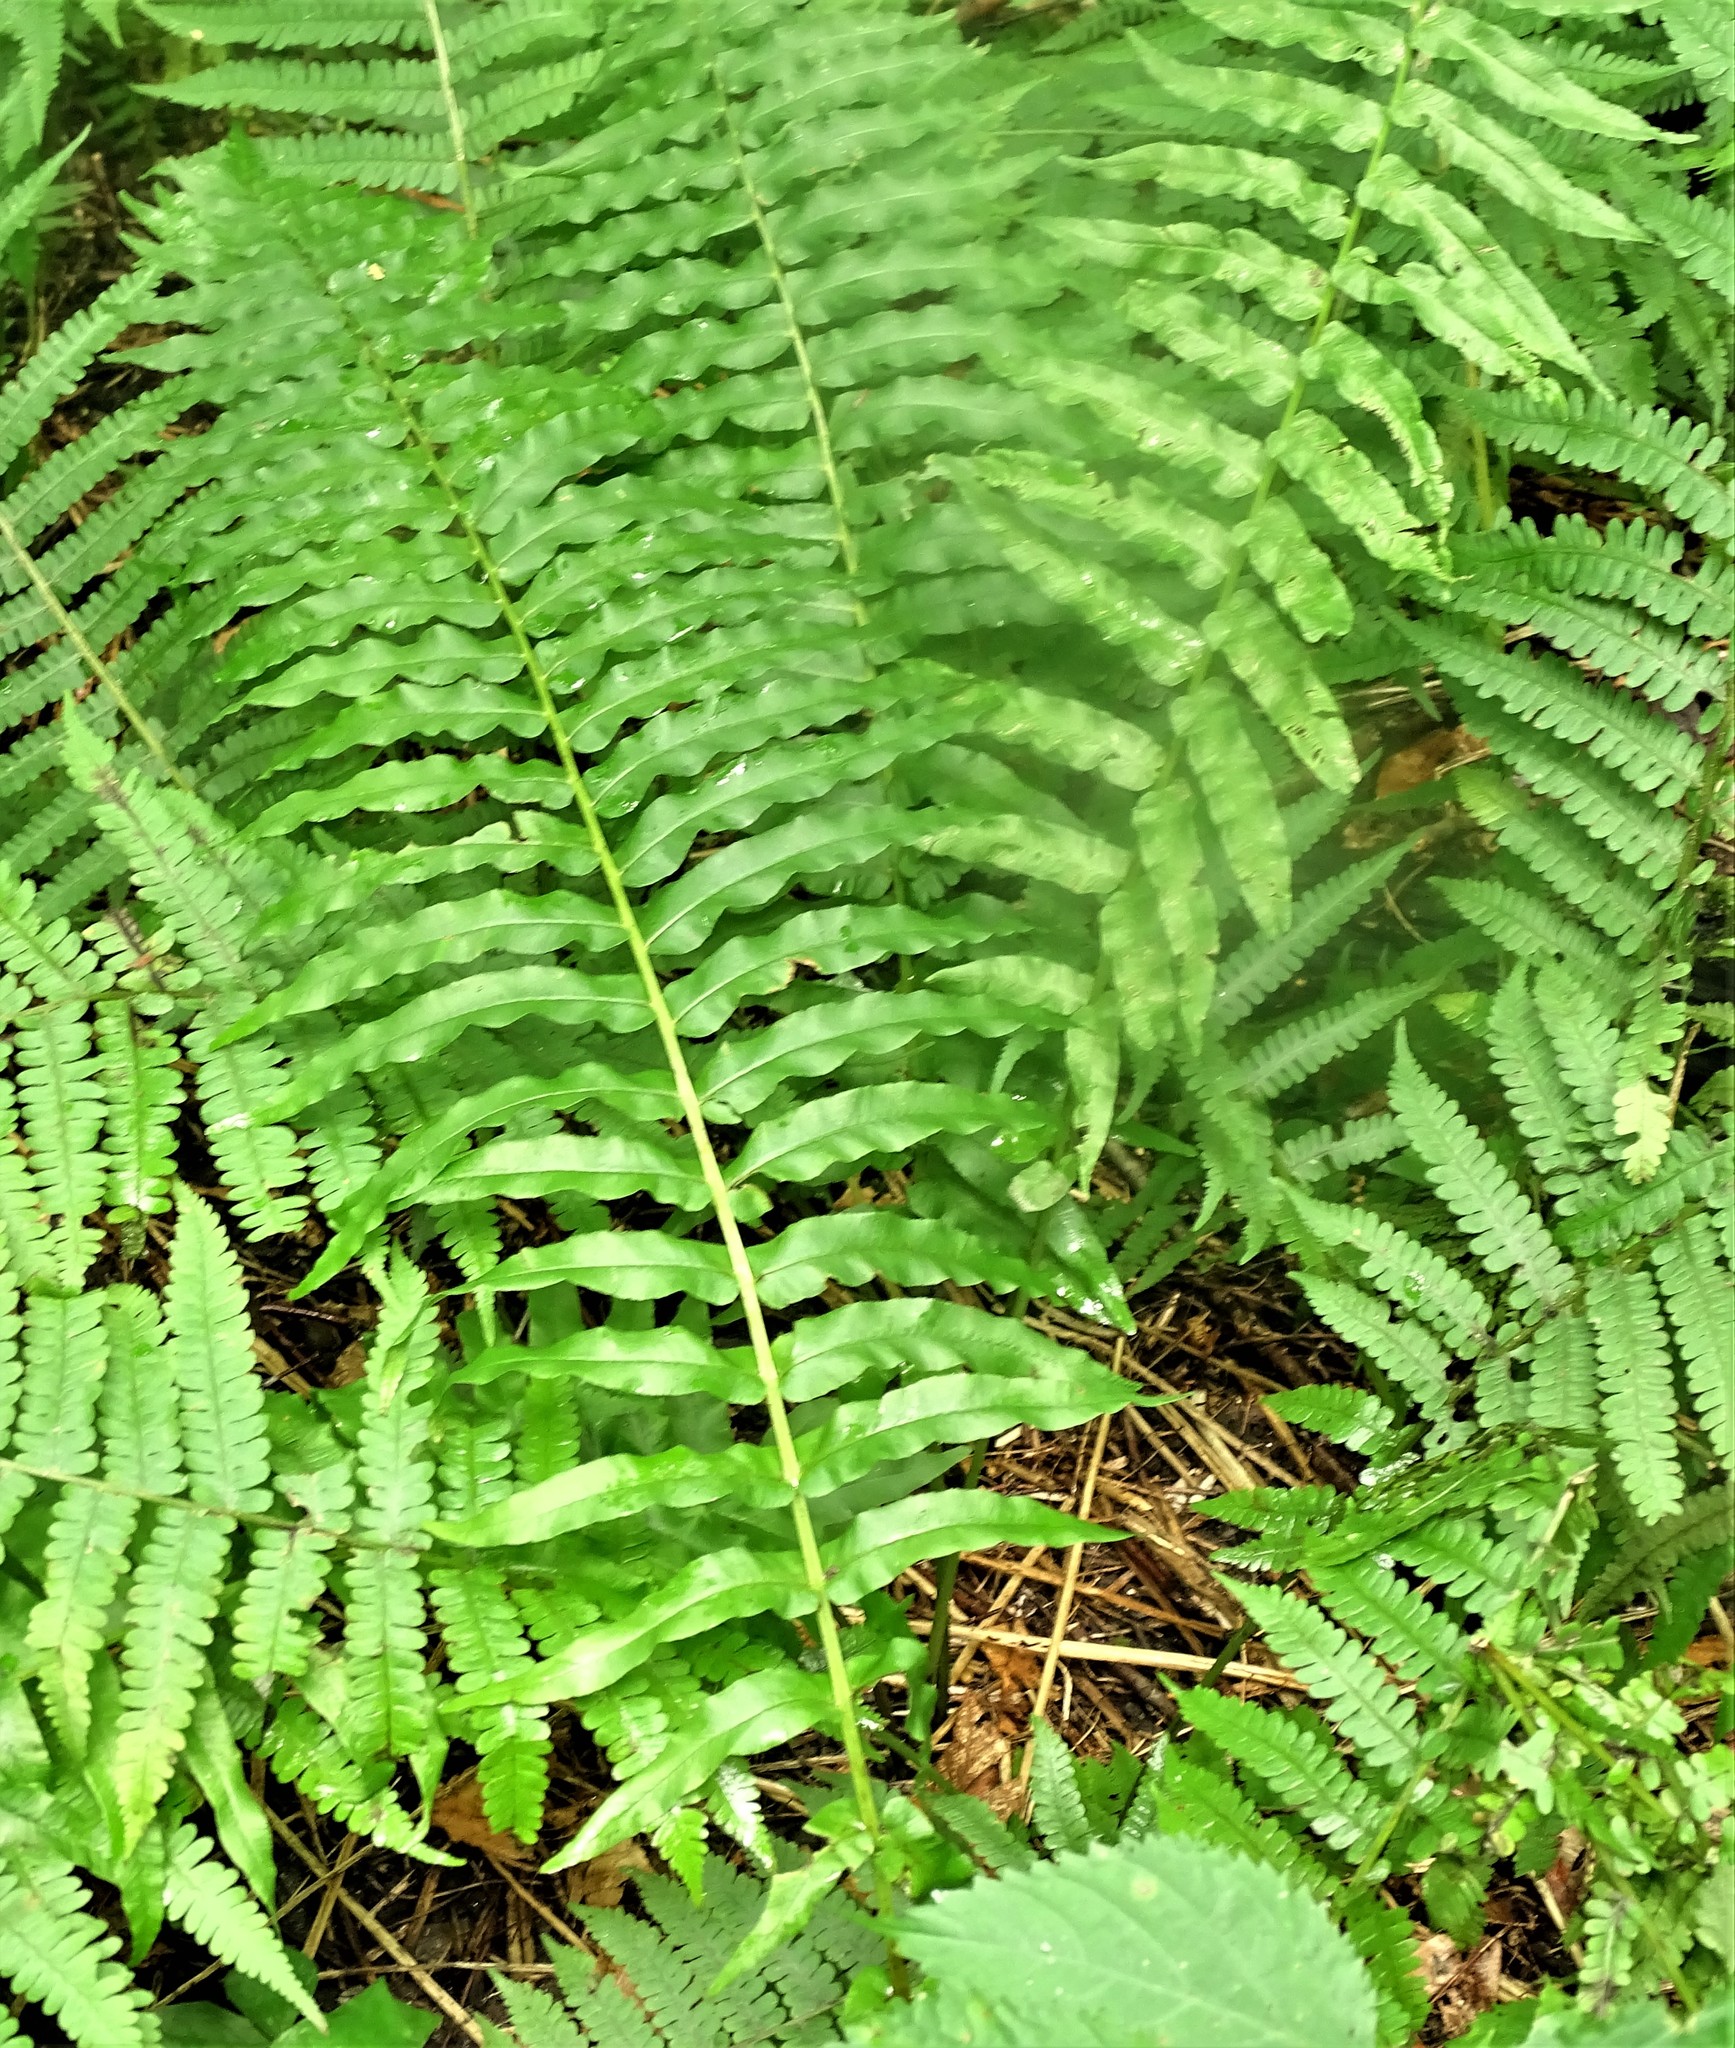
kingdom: Plantae
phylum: Tracheophyta
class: Polypodiopsida
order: Polypodiales
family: Diplaziopsidaceae
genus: Homalosorus
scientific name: Homalosorus pycnocarpos
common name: Glade fern
